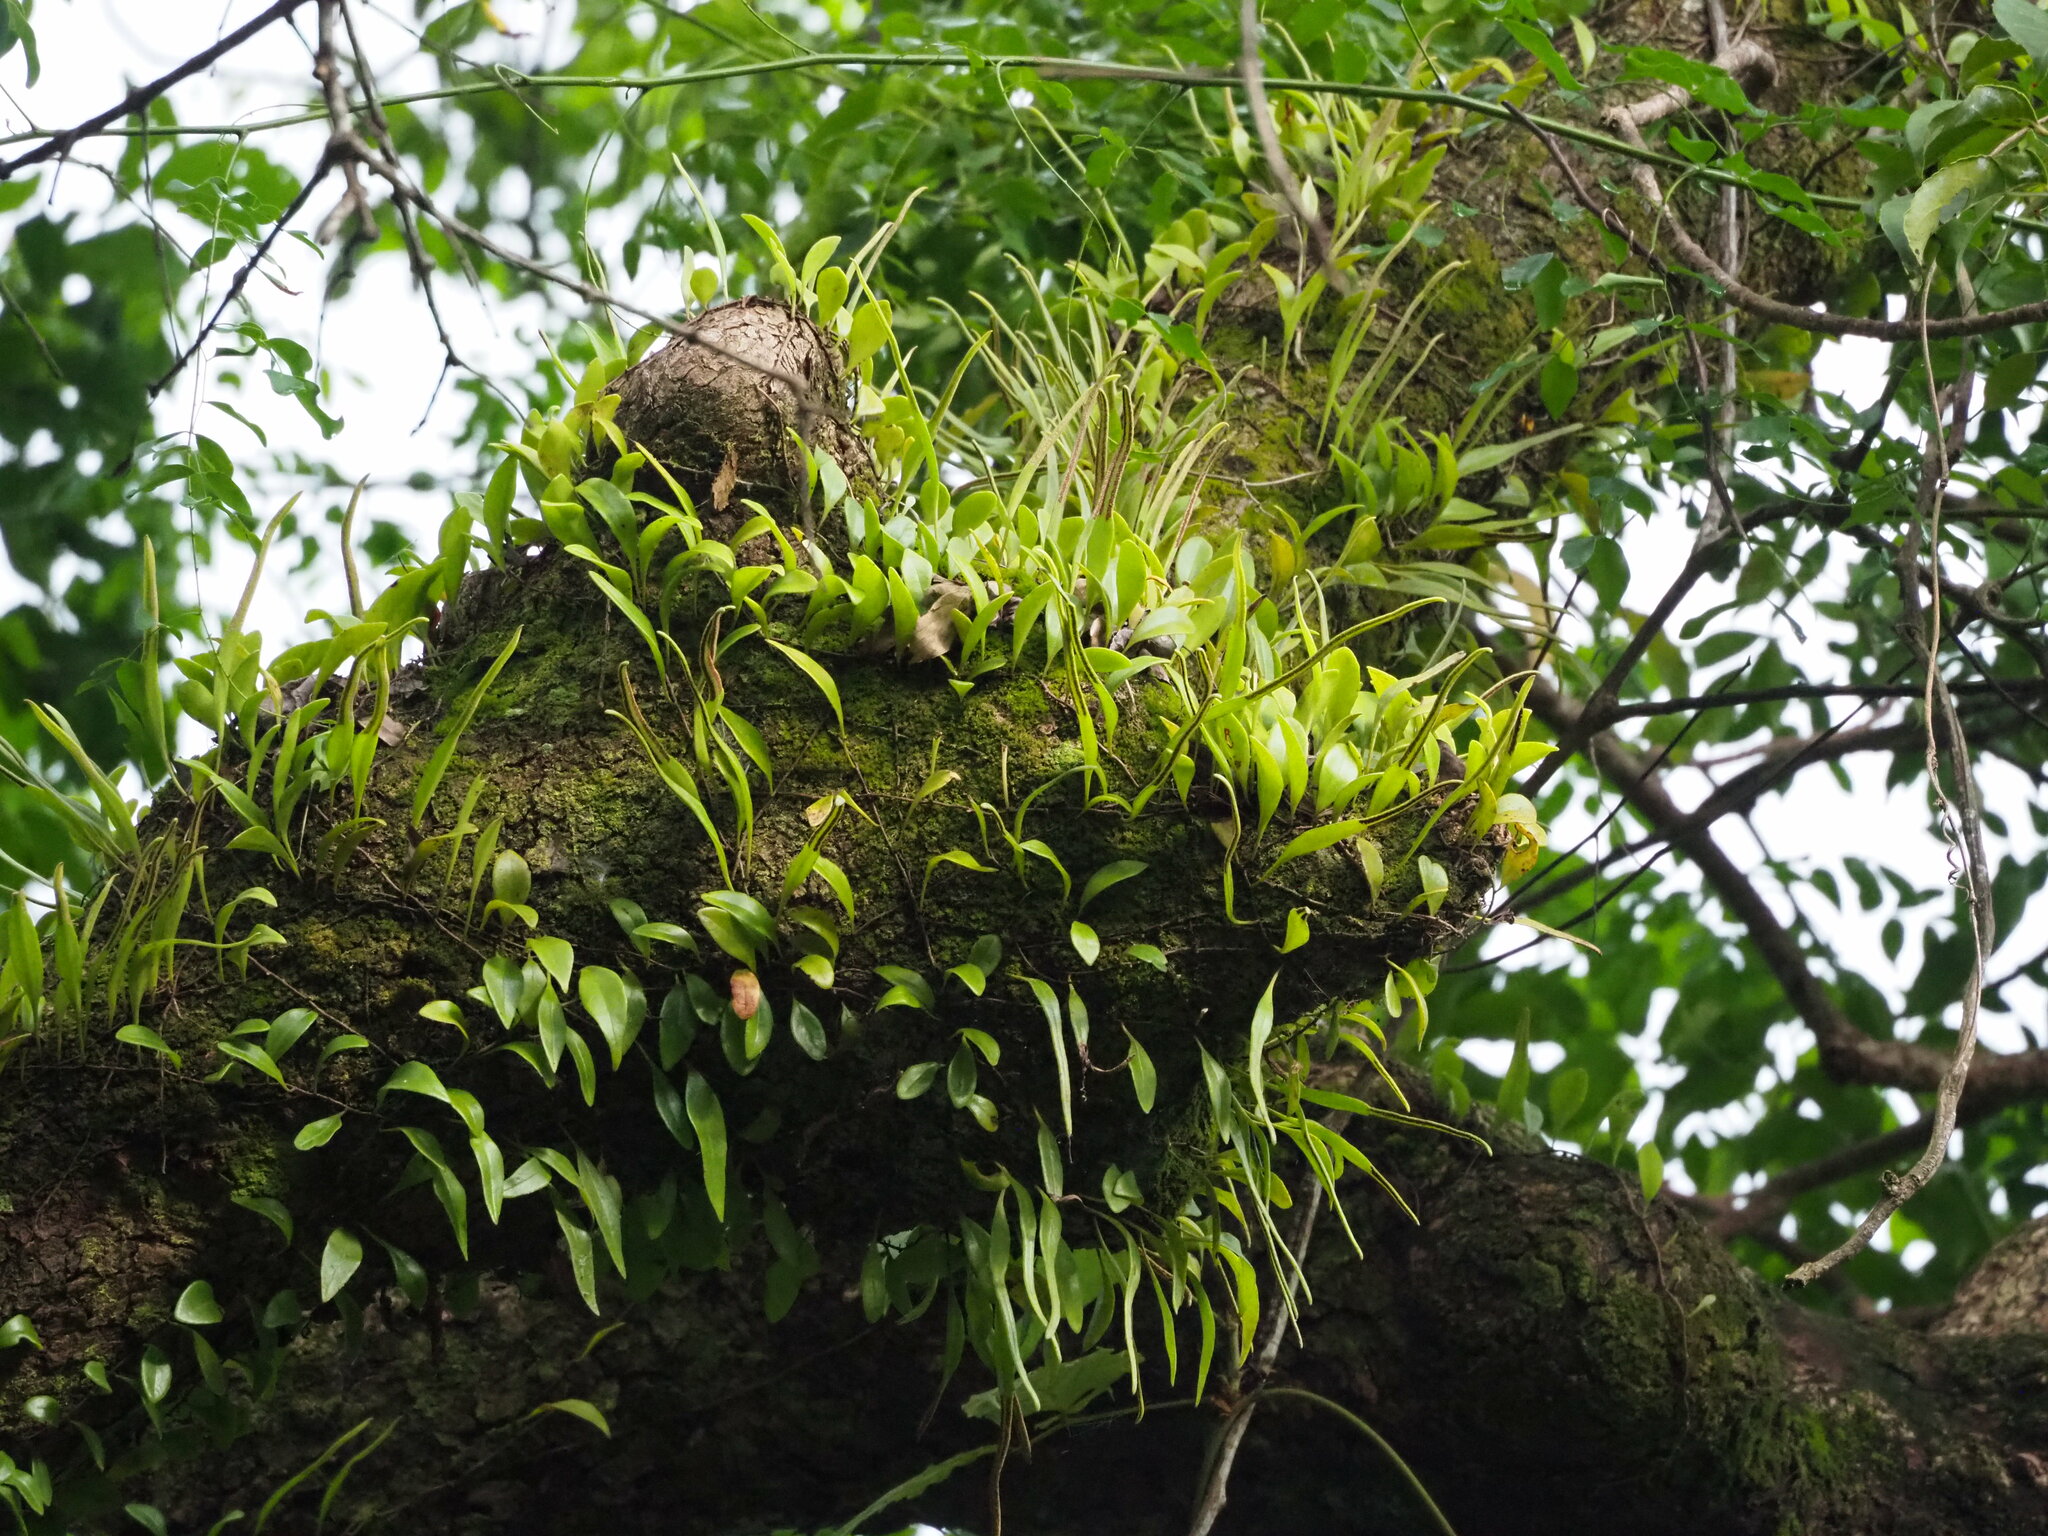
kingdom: Plantae
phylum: Tracheophyta
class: Polypodiopsida
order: Polypodiales
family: Polypodiaceae
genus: Pyrrosia
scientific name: Pyrrosia lanceolata
